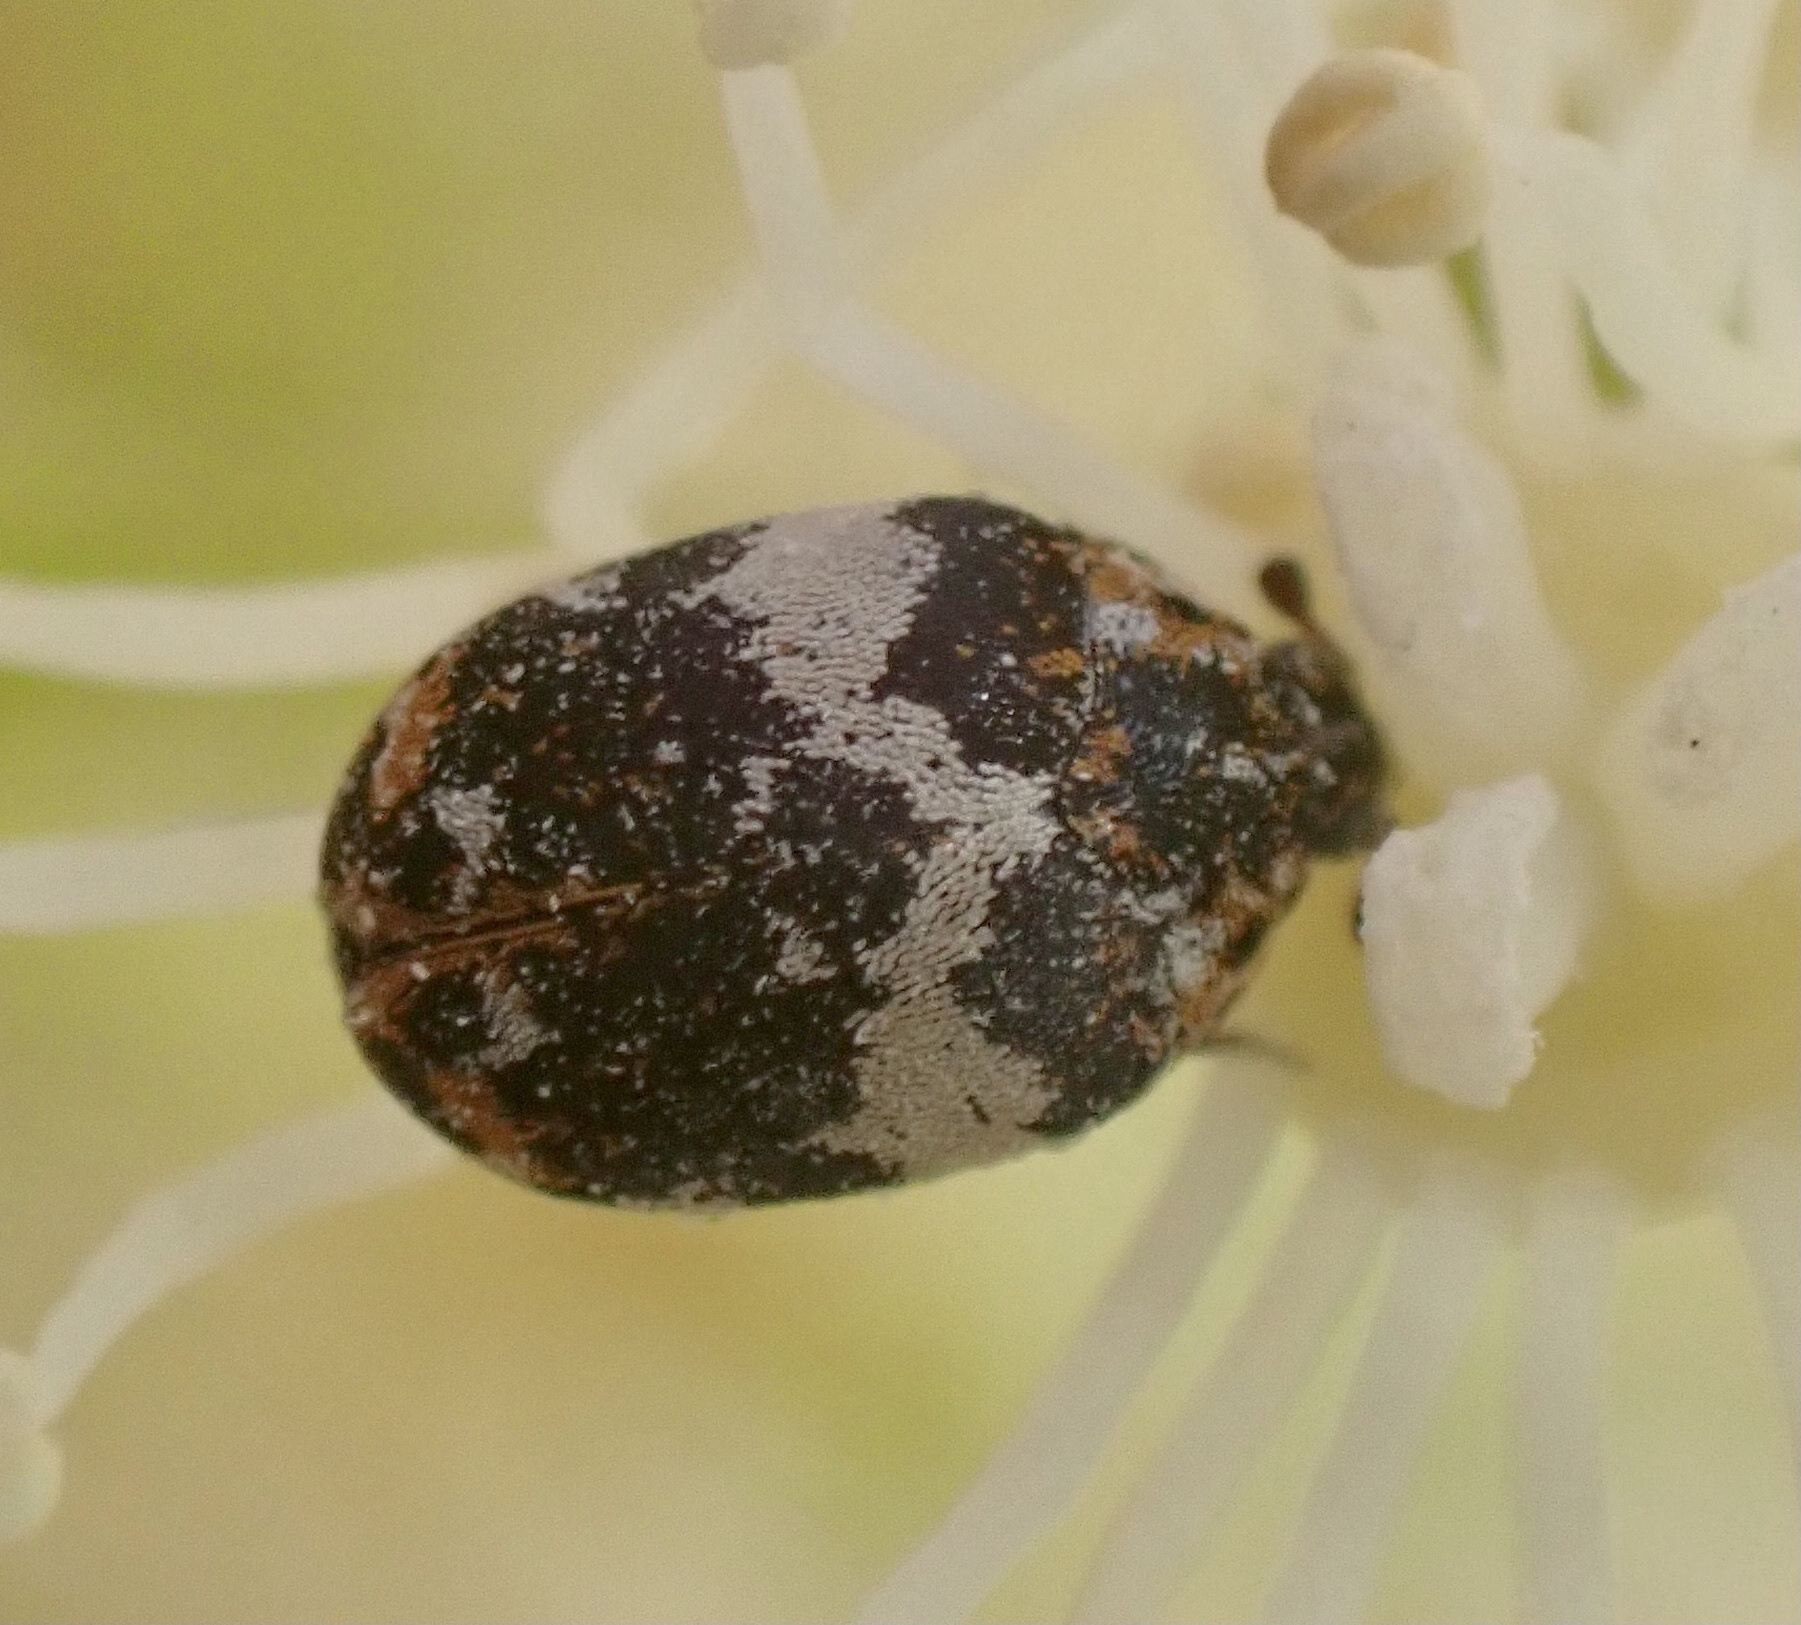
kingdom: Animalia
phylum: Arthropoda
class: Insecta
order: Coleoptera
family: Dermestidae
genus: Anthrenus
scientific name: Anthrenus pimpinellae
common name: Dermestid beetle
